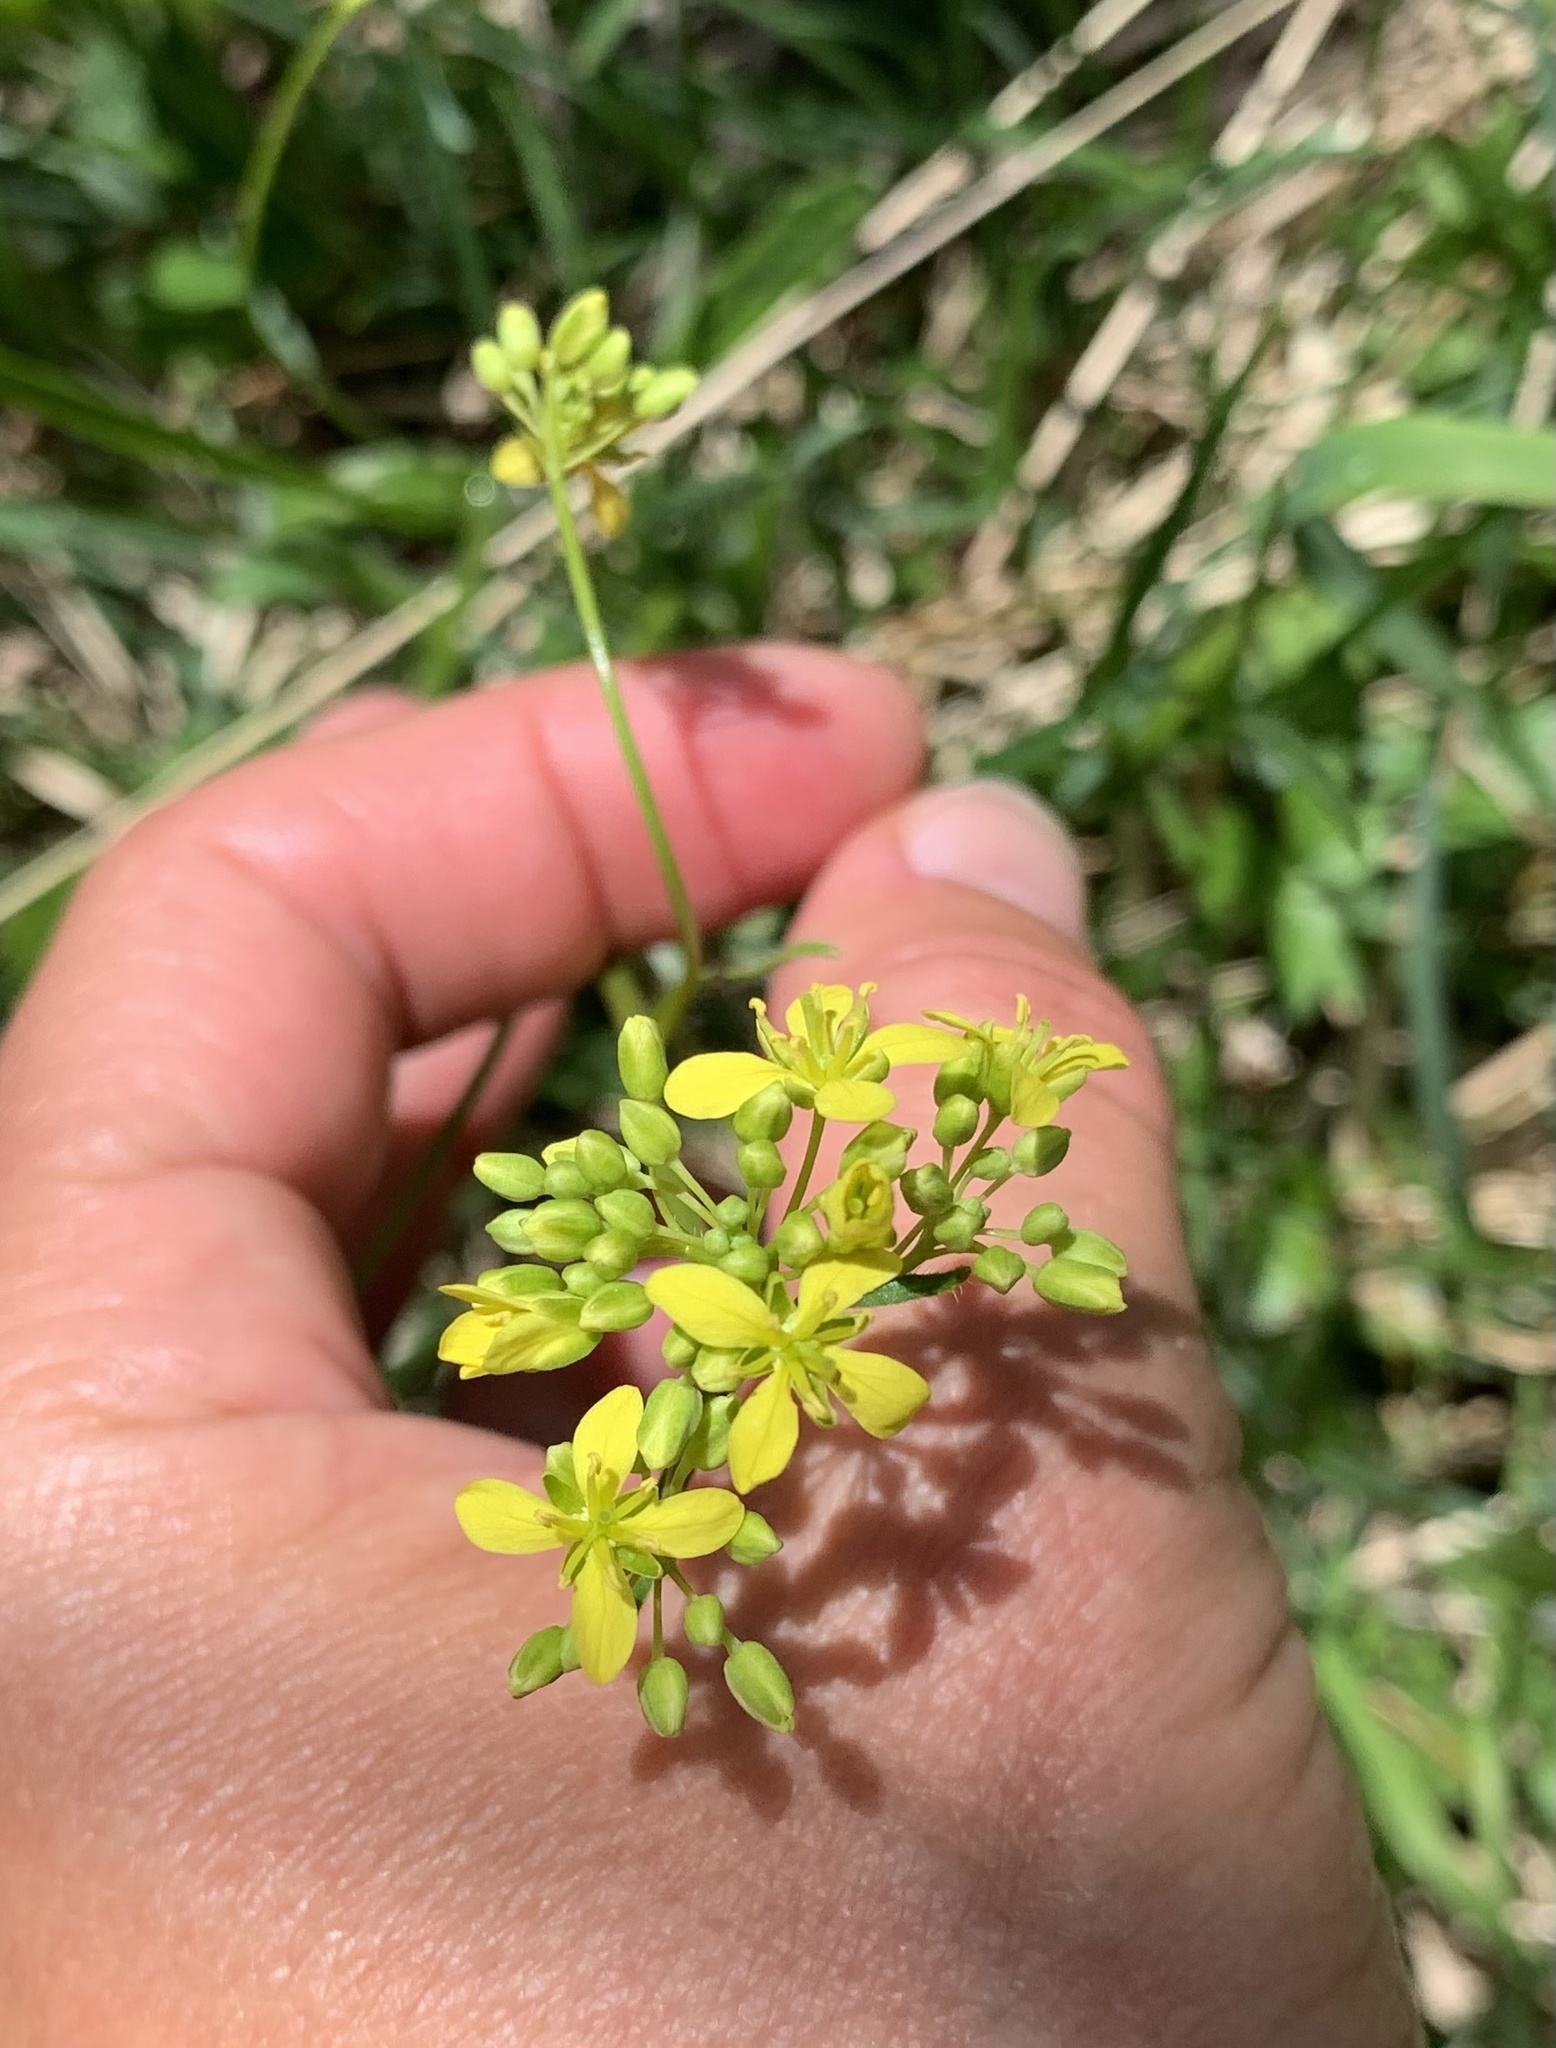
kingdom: Plantae
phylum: Tracheophyta
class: Magnoliopsida
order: Brassicales
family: Brassicaceae
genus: Biscutella
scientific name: Biscutella laevigata
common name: Buckler mustard
